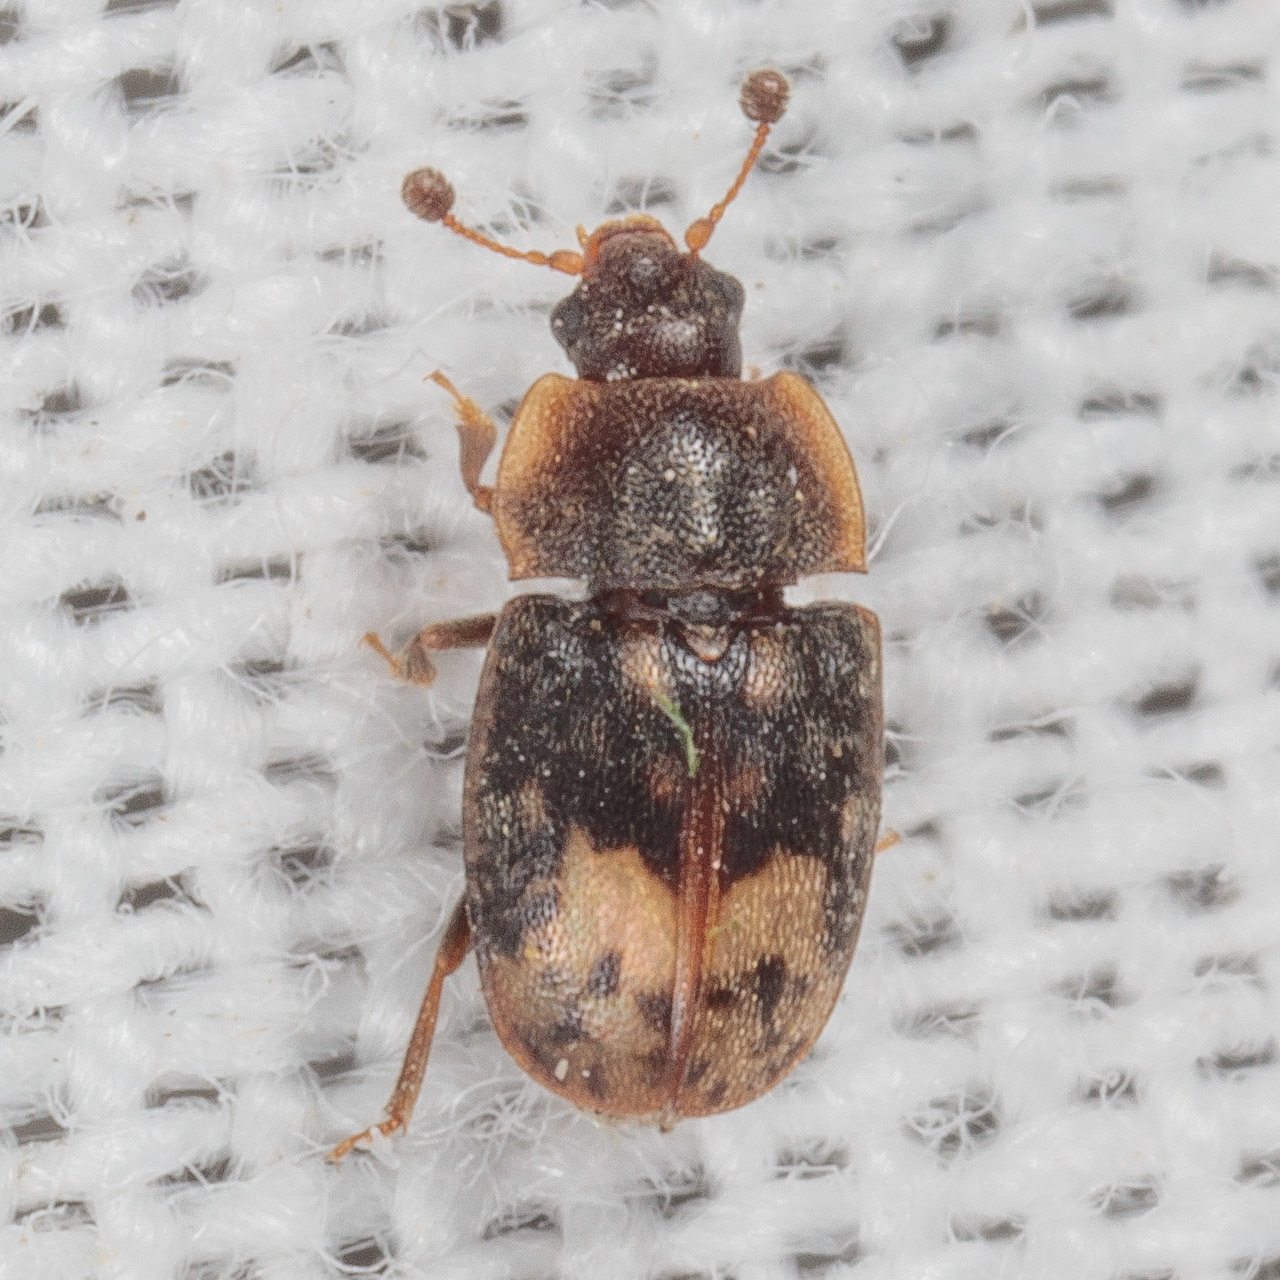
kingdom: Animalia
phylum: Arthropoda
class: Insecta
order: Coleoptera
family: Nitidulidae
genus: Omosita
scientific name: Omosita nearctica
